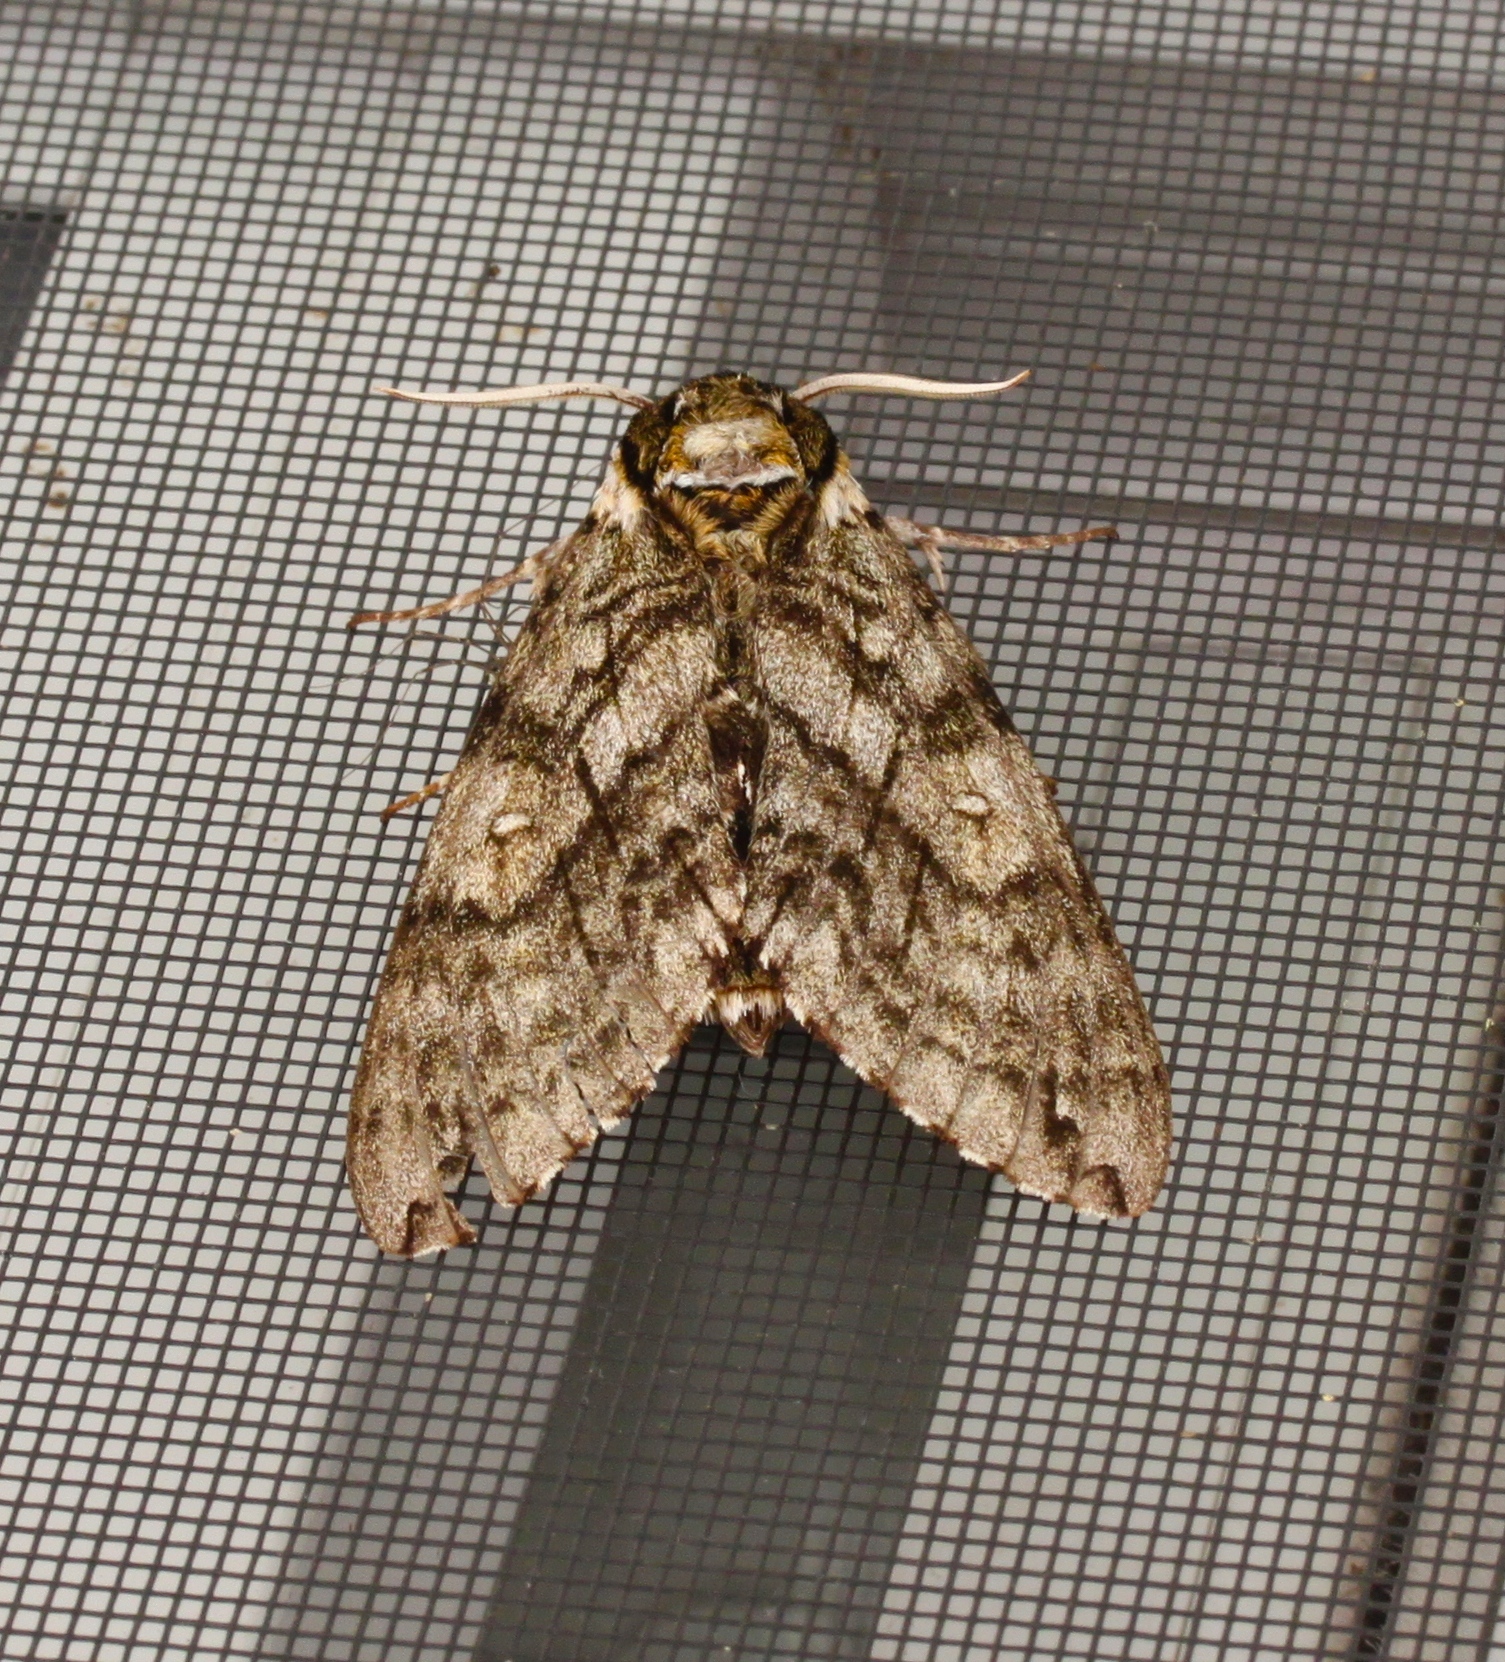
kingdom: Animalia
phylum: Arthropoda
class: Insecta
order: Lepidoptera
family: Sphingidae
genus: Ceratomia
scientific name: Ceratomia undulosa
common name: Waved sphinx
